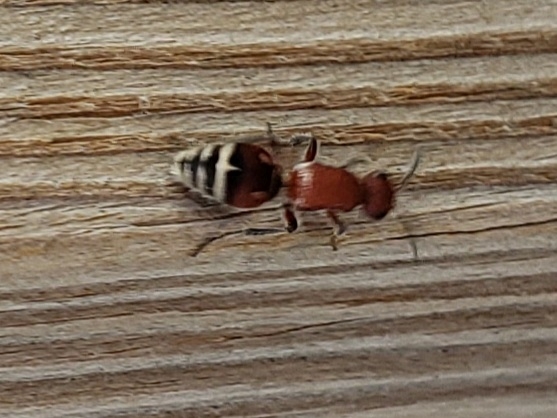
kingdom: Animalia
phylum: Arthropoda
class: Insecta
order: Hymenoptera
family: Mutillidae
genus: Timulla
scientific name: Timulla
